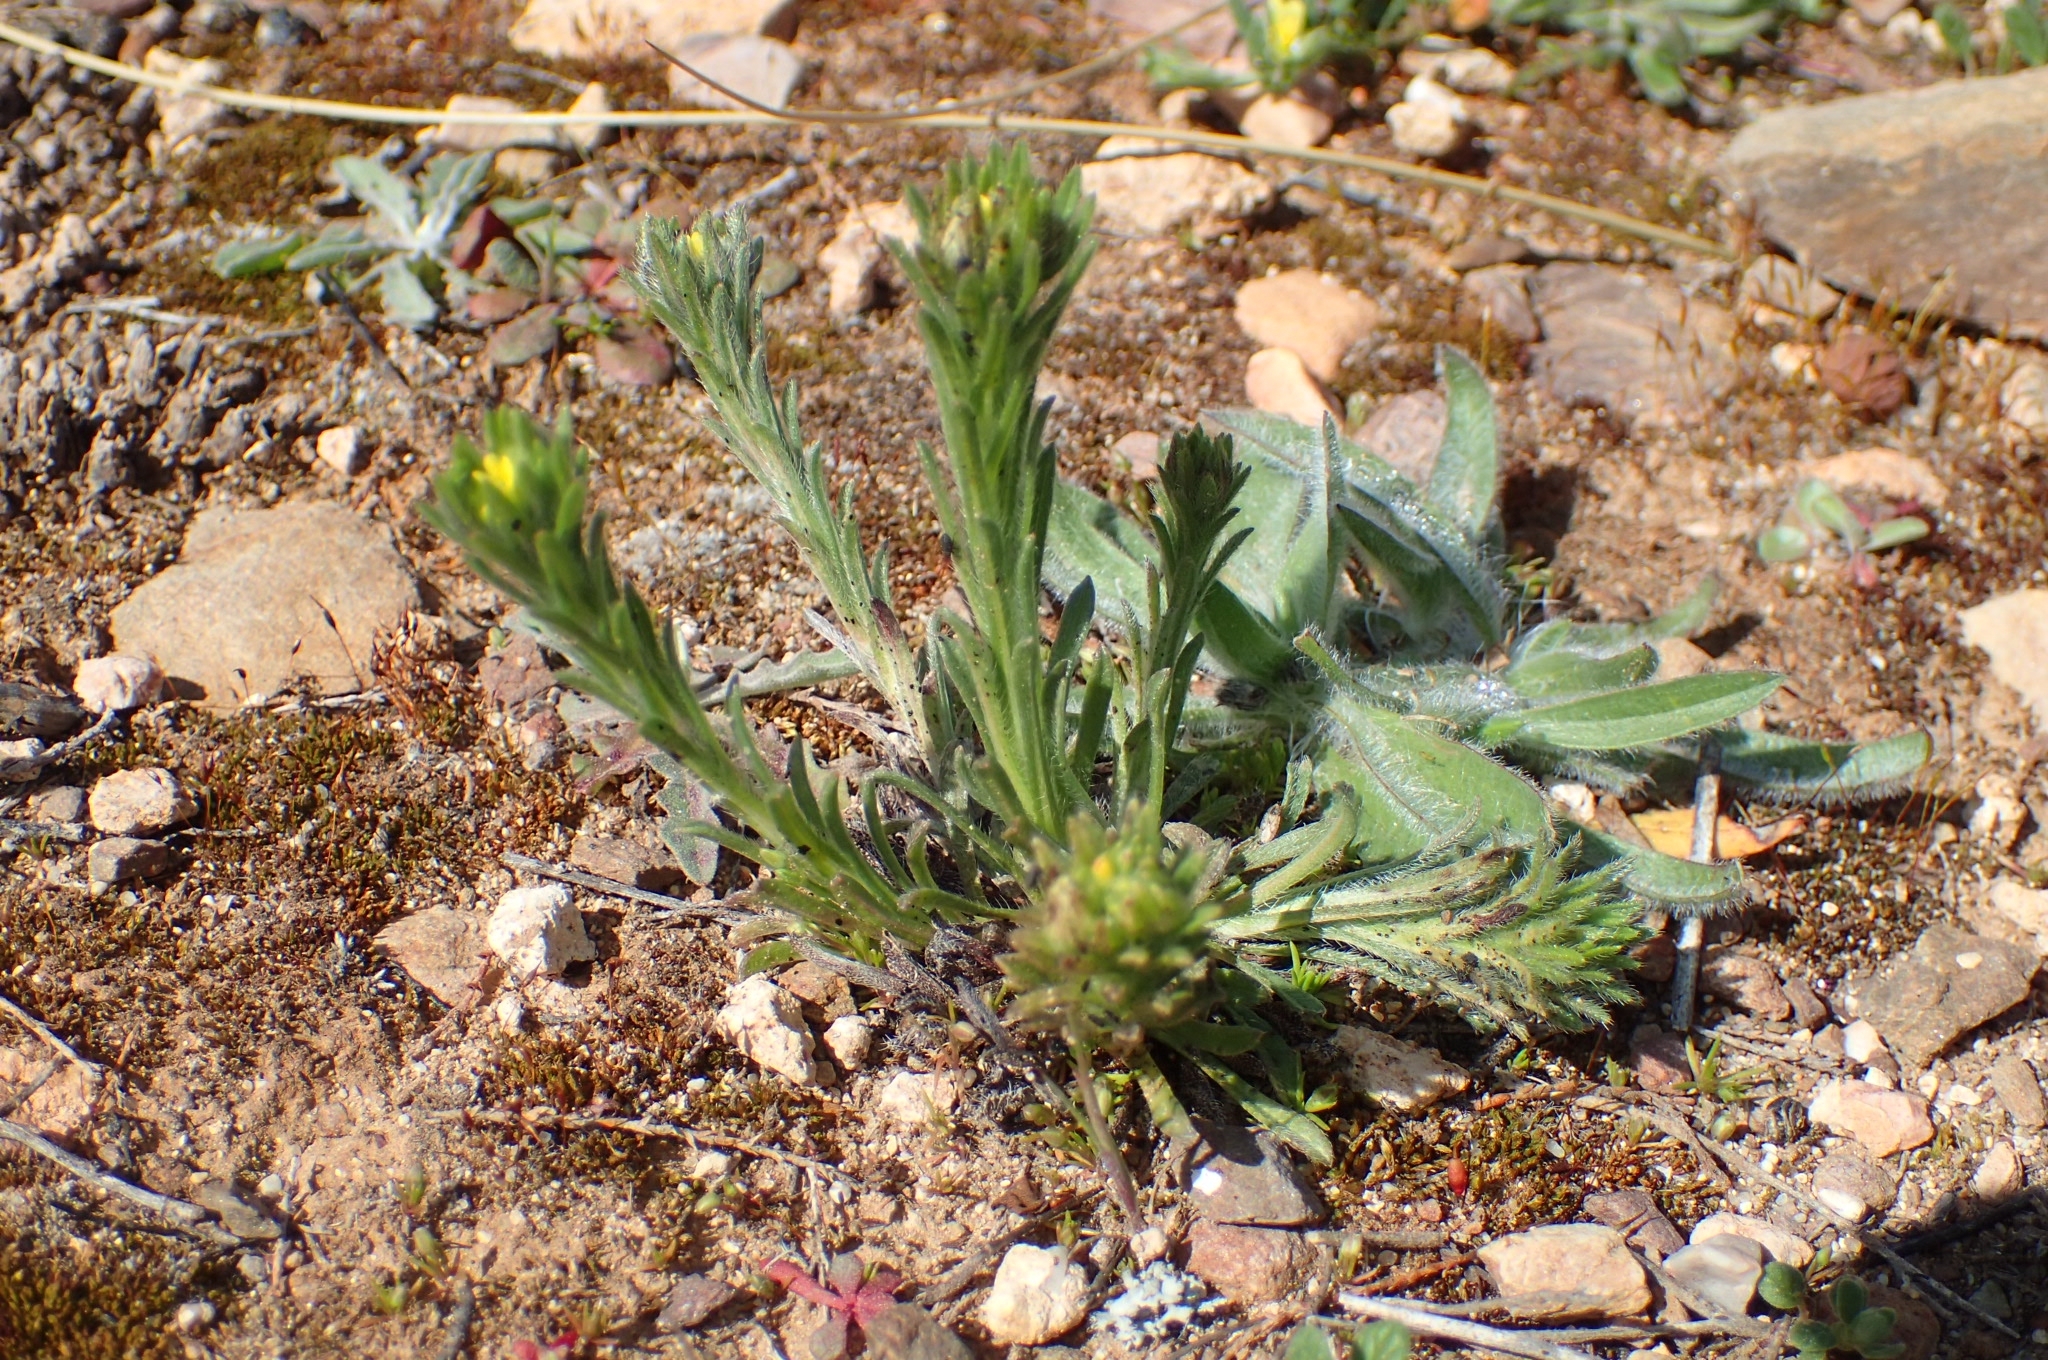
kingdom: Plantae
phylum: Tracheophyta
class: Magnoliopsida
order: Boraginales
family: Boraginaceae
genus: Neatostema
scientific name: Neatostema apulum
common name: Hairy sheepweed
